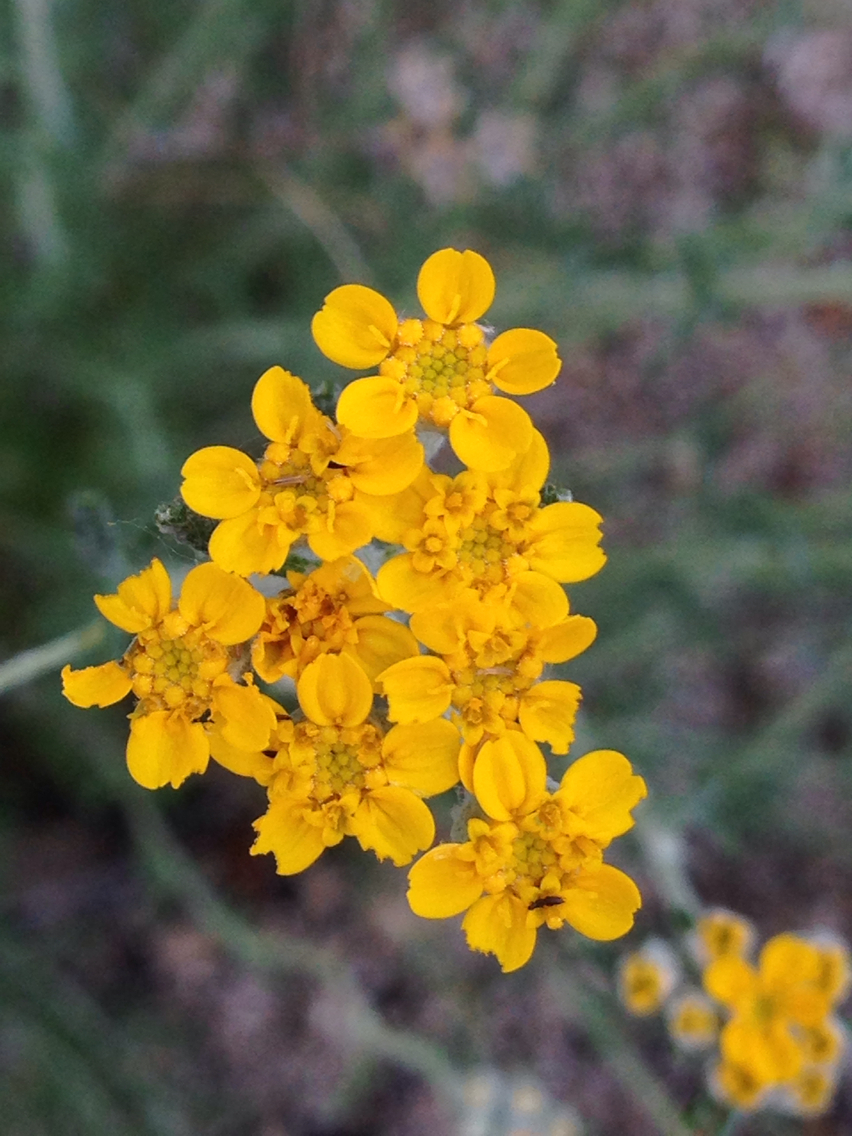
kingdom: Plantae
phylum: Tracheophyta
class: Magnoliopsida
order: Asterales
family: Asteraceae
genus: Eriophyllum
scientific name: Eriophyllum confertiflorum
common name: Golden-yarrow
